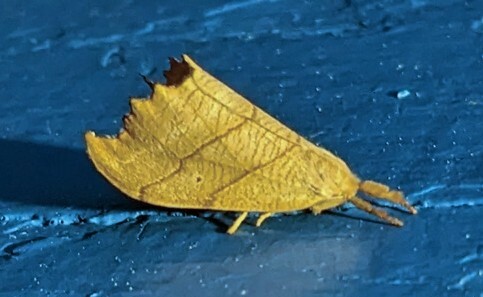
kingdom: Animalia
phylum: Arthropoda
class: Insecta
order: Lepidoptera
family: Drepanidae
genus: Falcaria
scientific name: Falcaria bilineata
